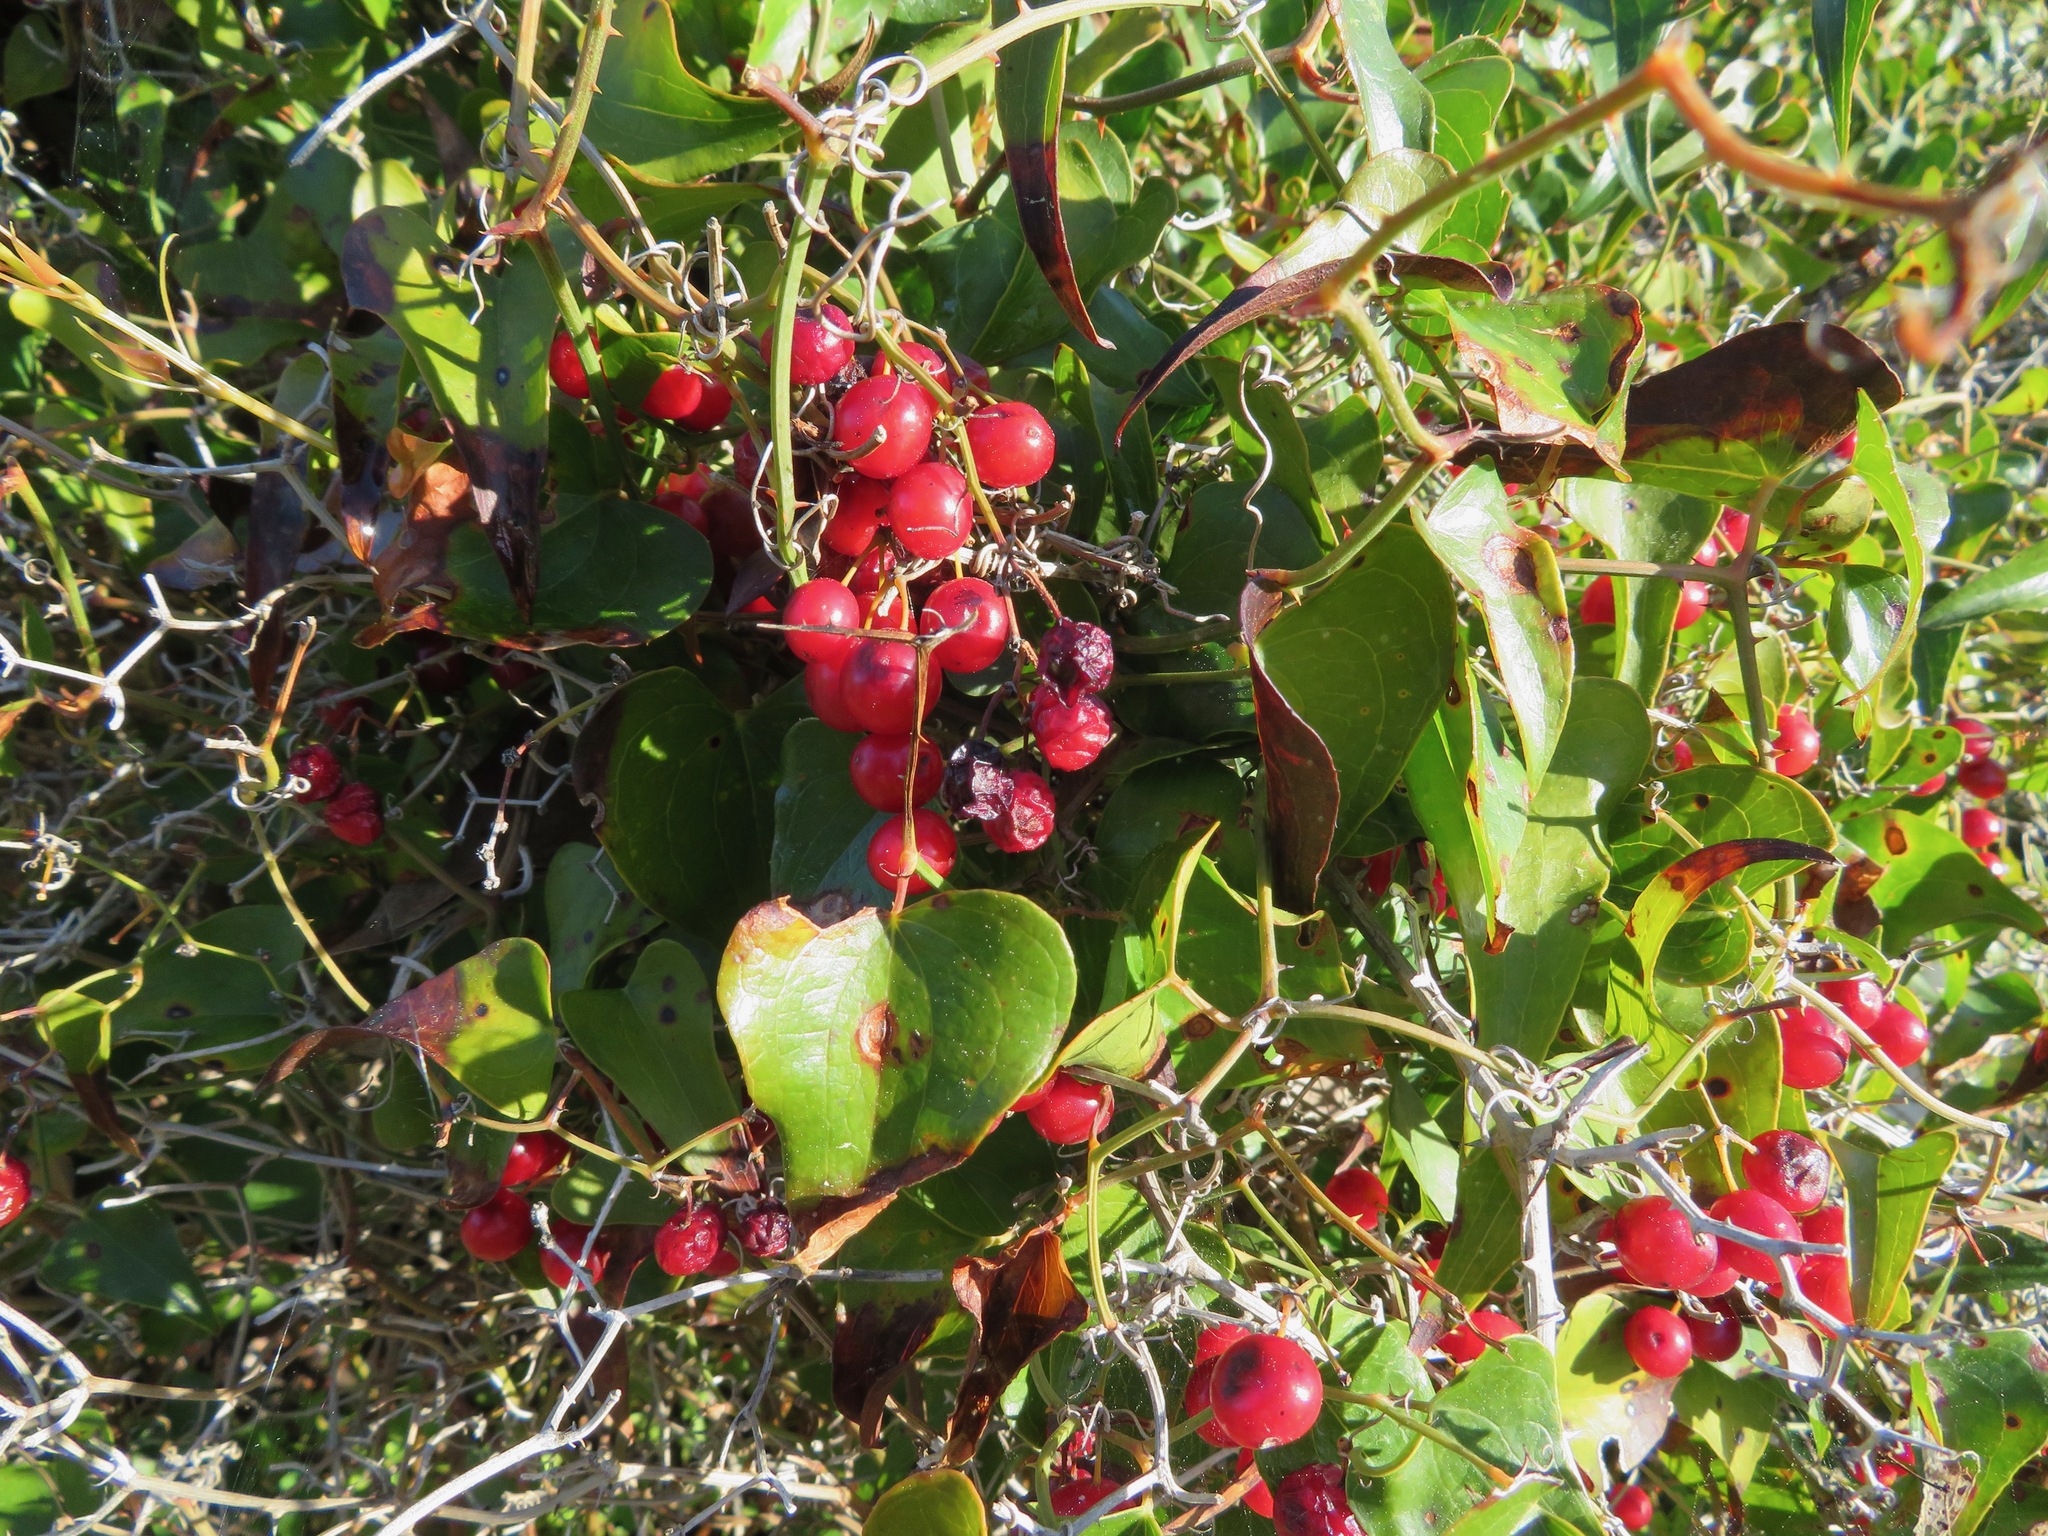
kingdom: Plantae
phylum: Tracheophyta
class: Liliopsida
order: Liliales
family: Smilacaceae
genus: Smilax
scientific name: Smilax aspera
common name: Common smilax
